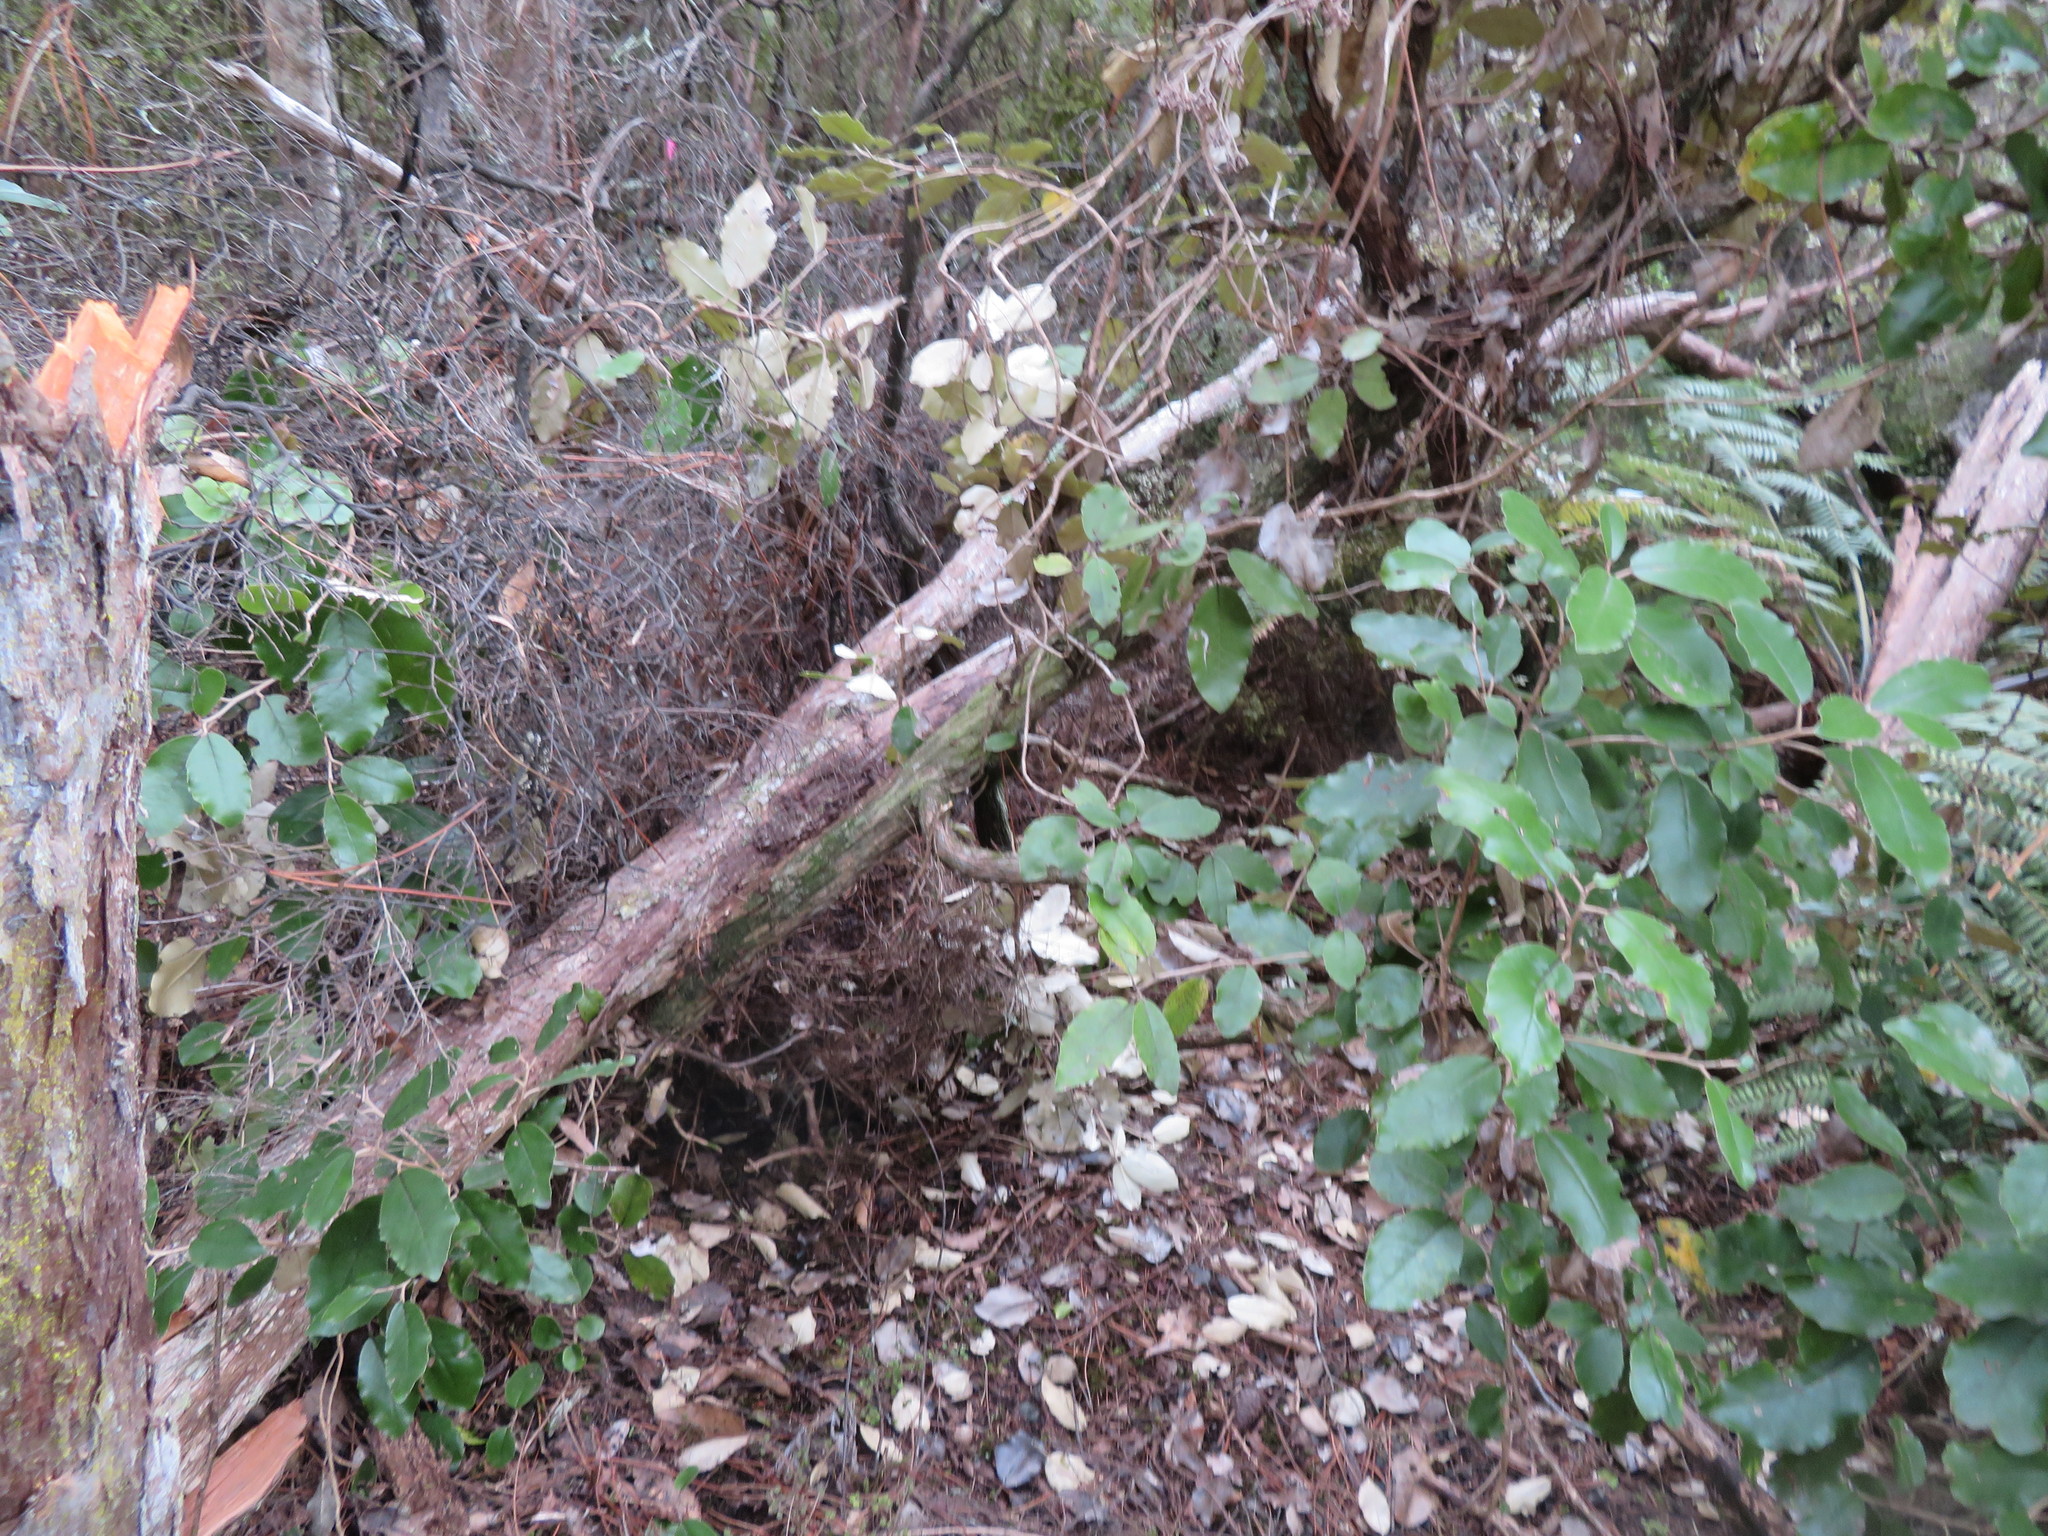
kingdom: Plantae
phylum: Tracheophyta
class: Magnoliopsida
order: Asterales
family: Asteraceae
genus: Olearia
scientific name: Olearia furfuracea
